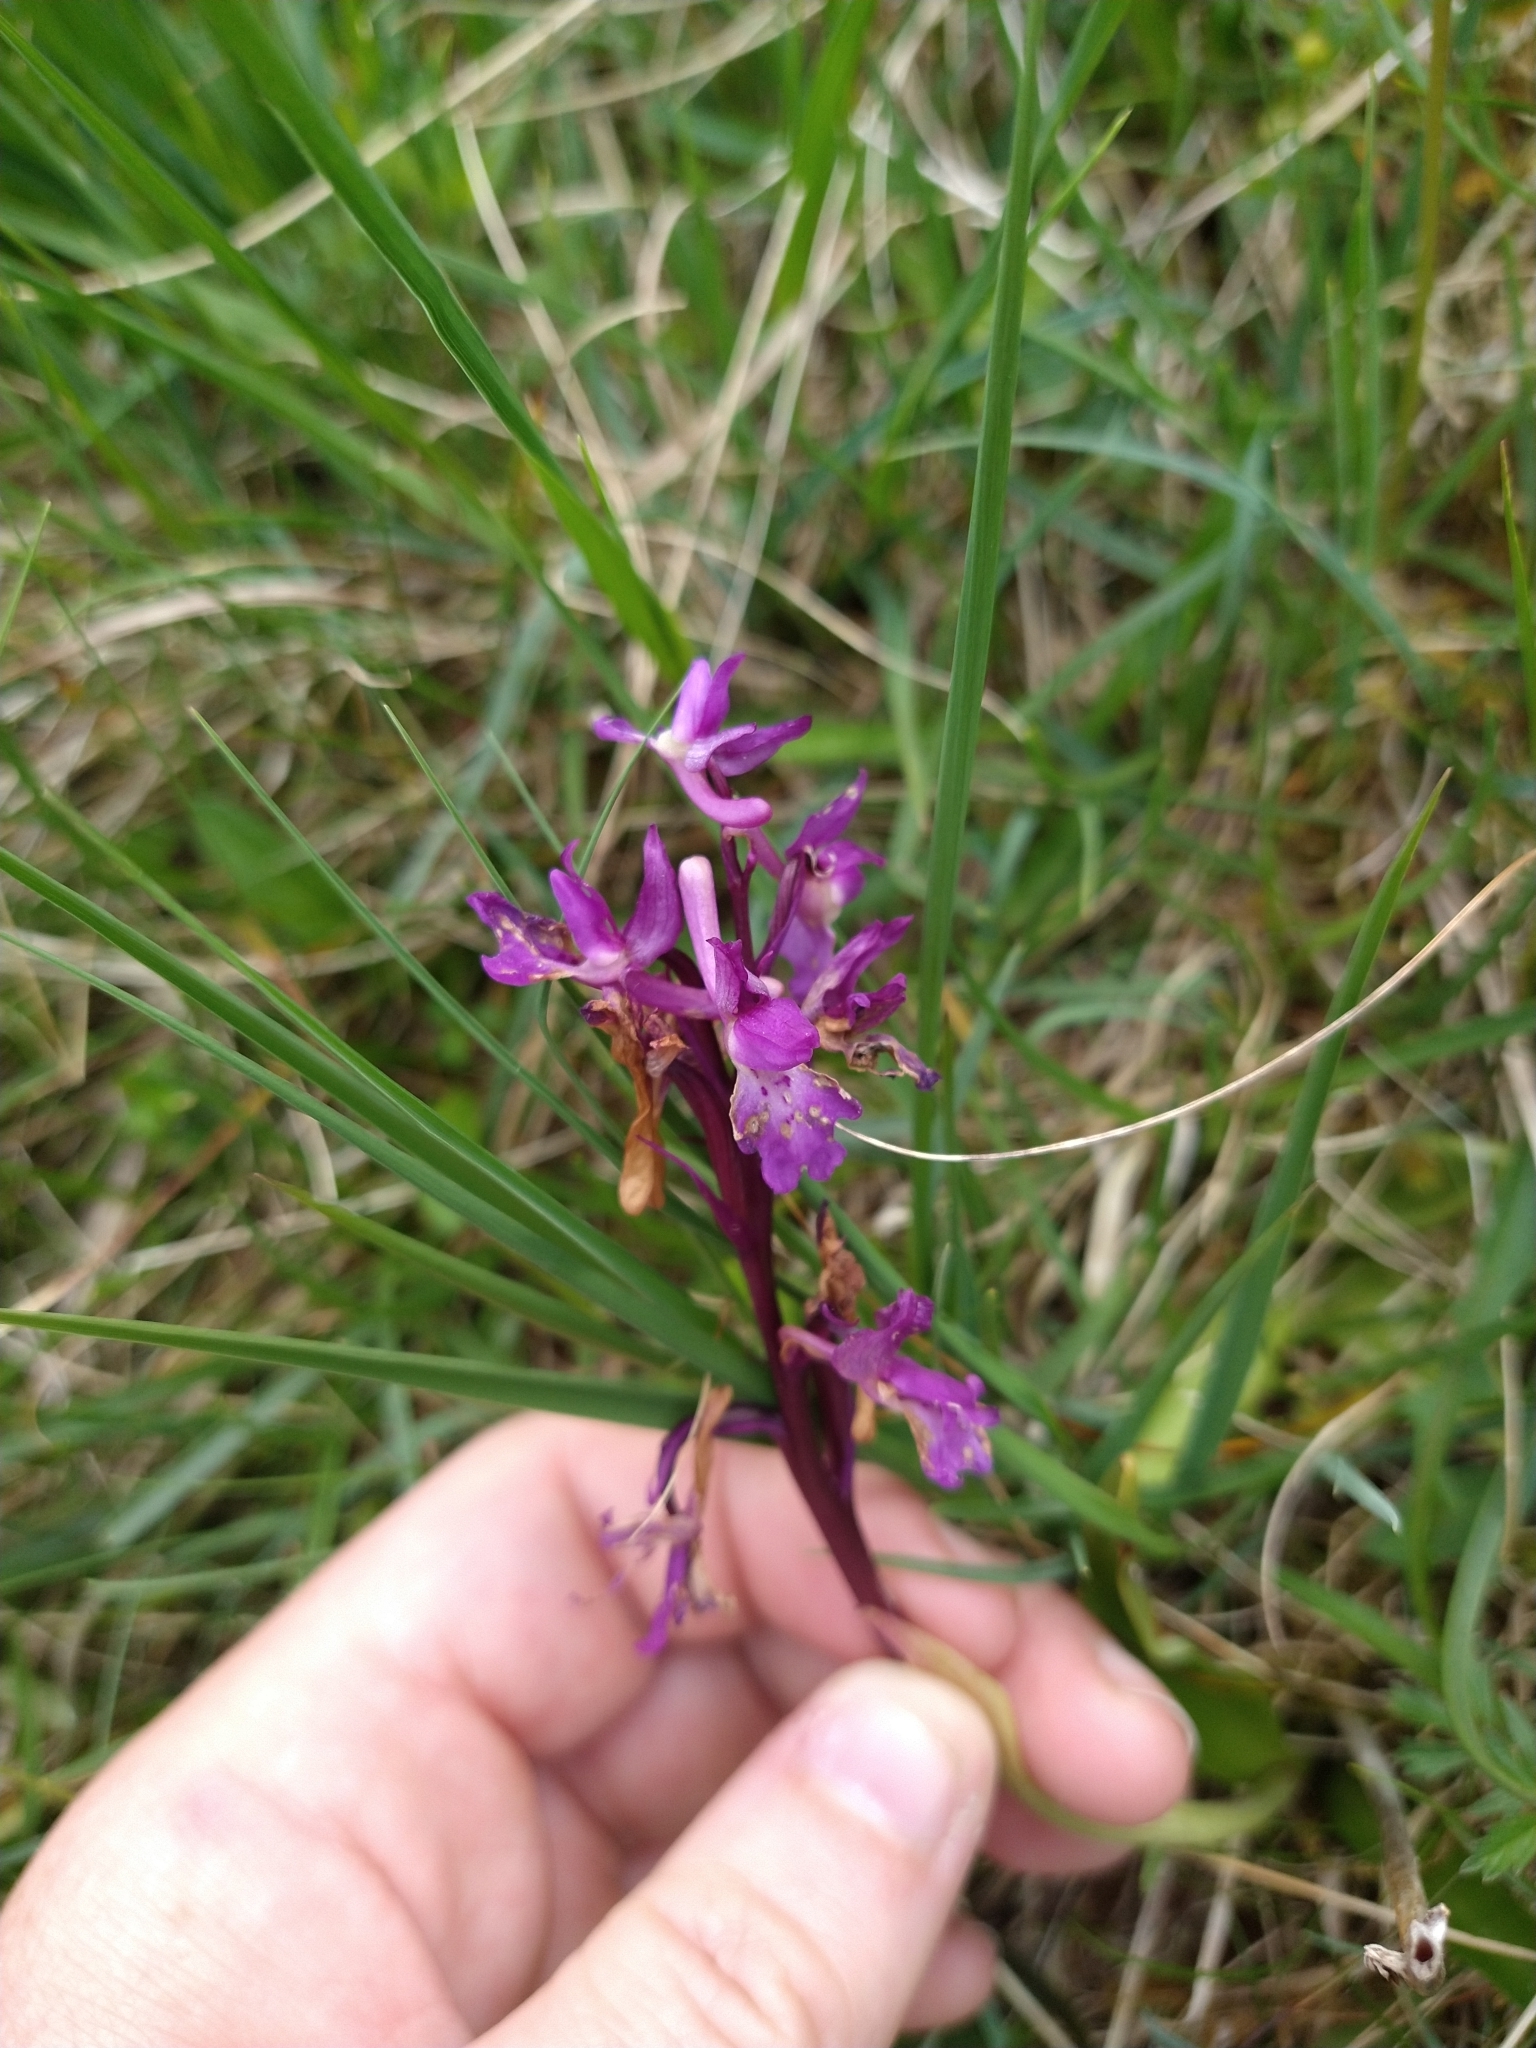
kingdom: Plantae
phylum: Tracheophyta
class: Liliopsida
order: Asparagales
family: Orchidaceae
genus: Orchis
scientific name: Orchis mascula
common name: Early-purple orchid
